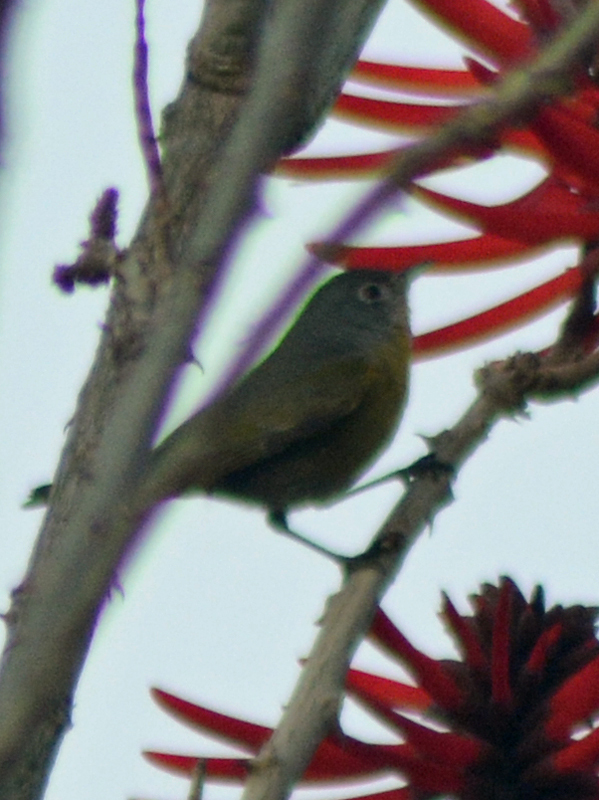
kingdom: Animalia
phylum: Chordata
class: Aves
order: Passeriformes
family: Parulidae
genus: Leiothlypis
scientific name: Leiothlypis ruficapilla
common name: Nashville warbler
